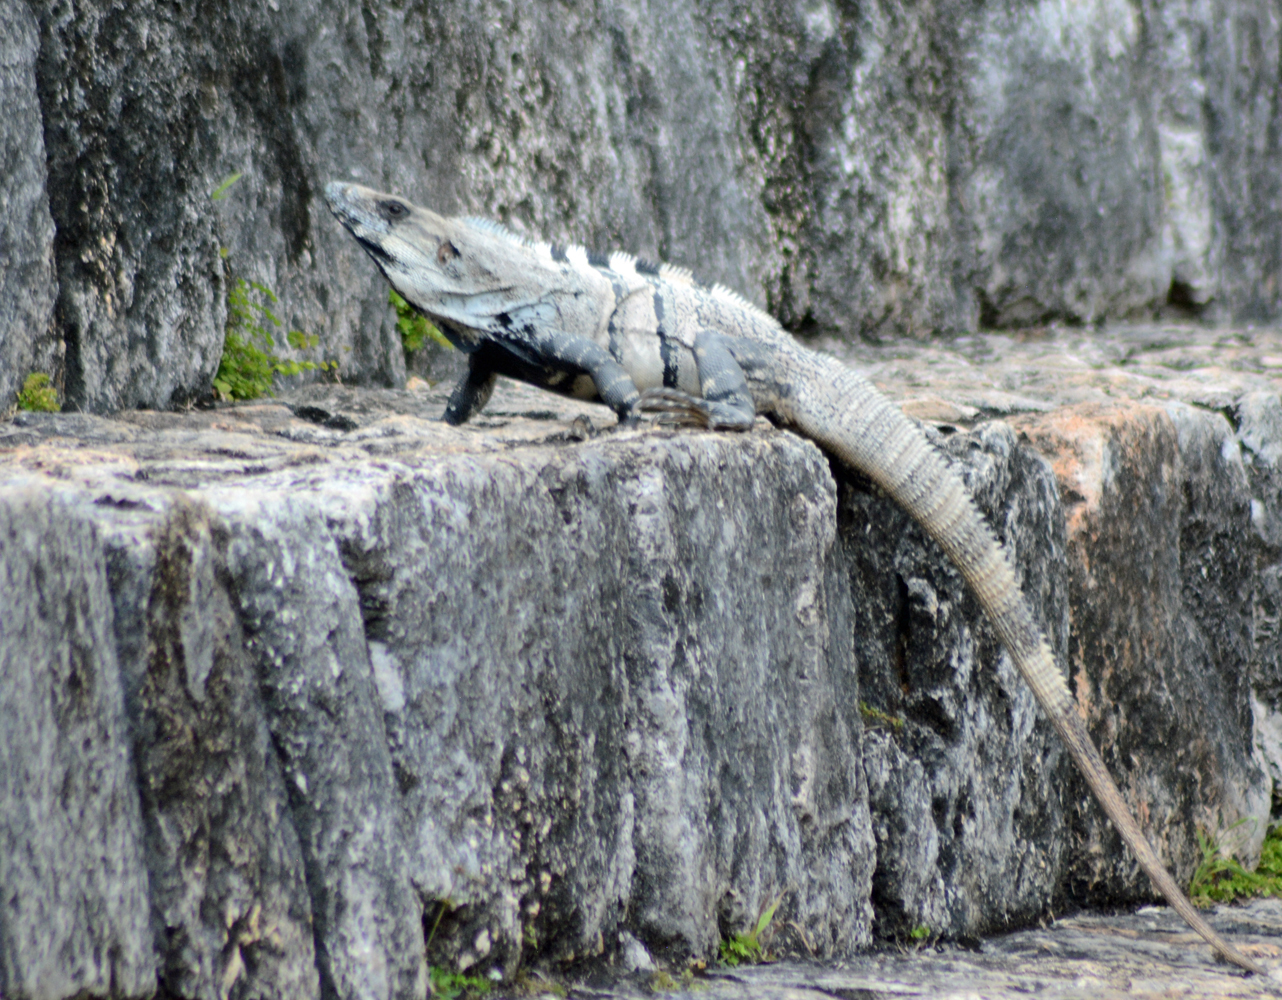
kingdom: Animalia
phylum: Chordata
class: Squamata
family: Iguanidae
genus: Ctenosaura
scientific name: Ctenosaura similis
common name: Black spiny-tailed iguana
